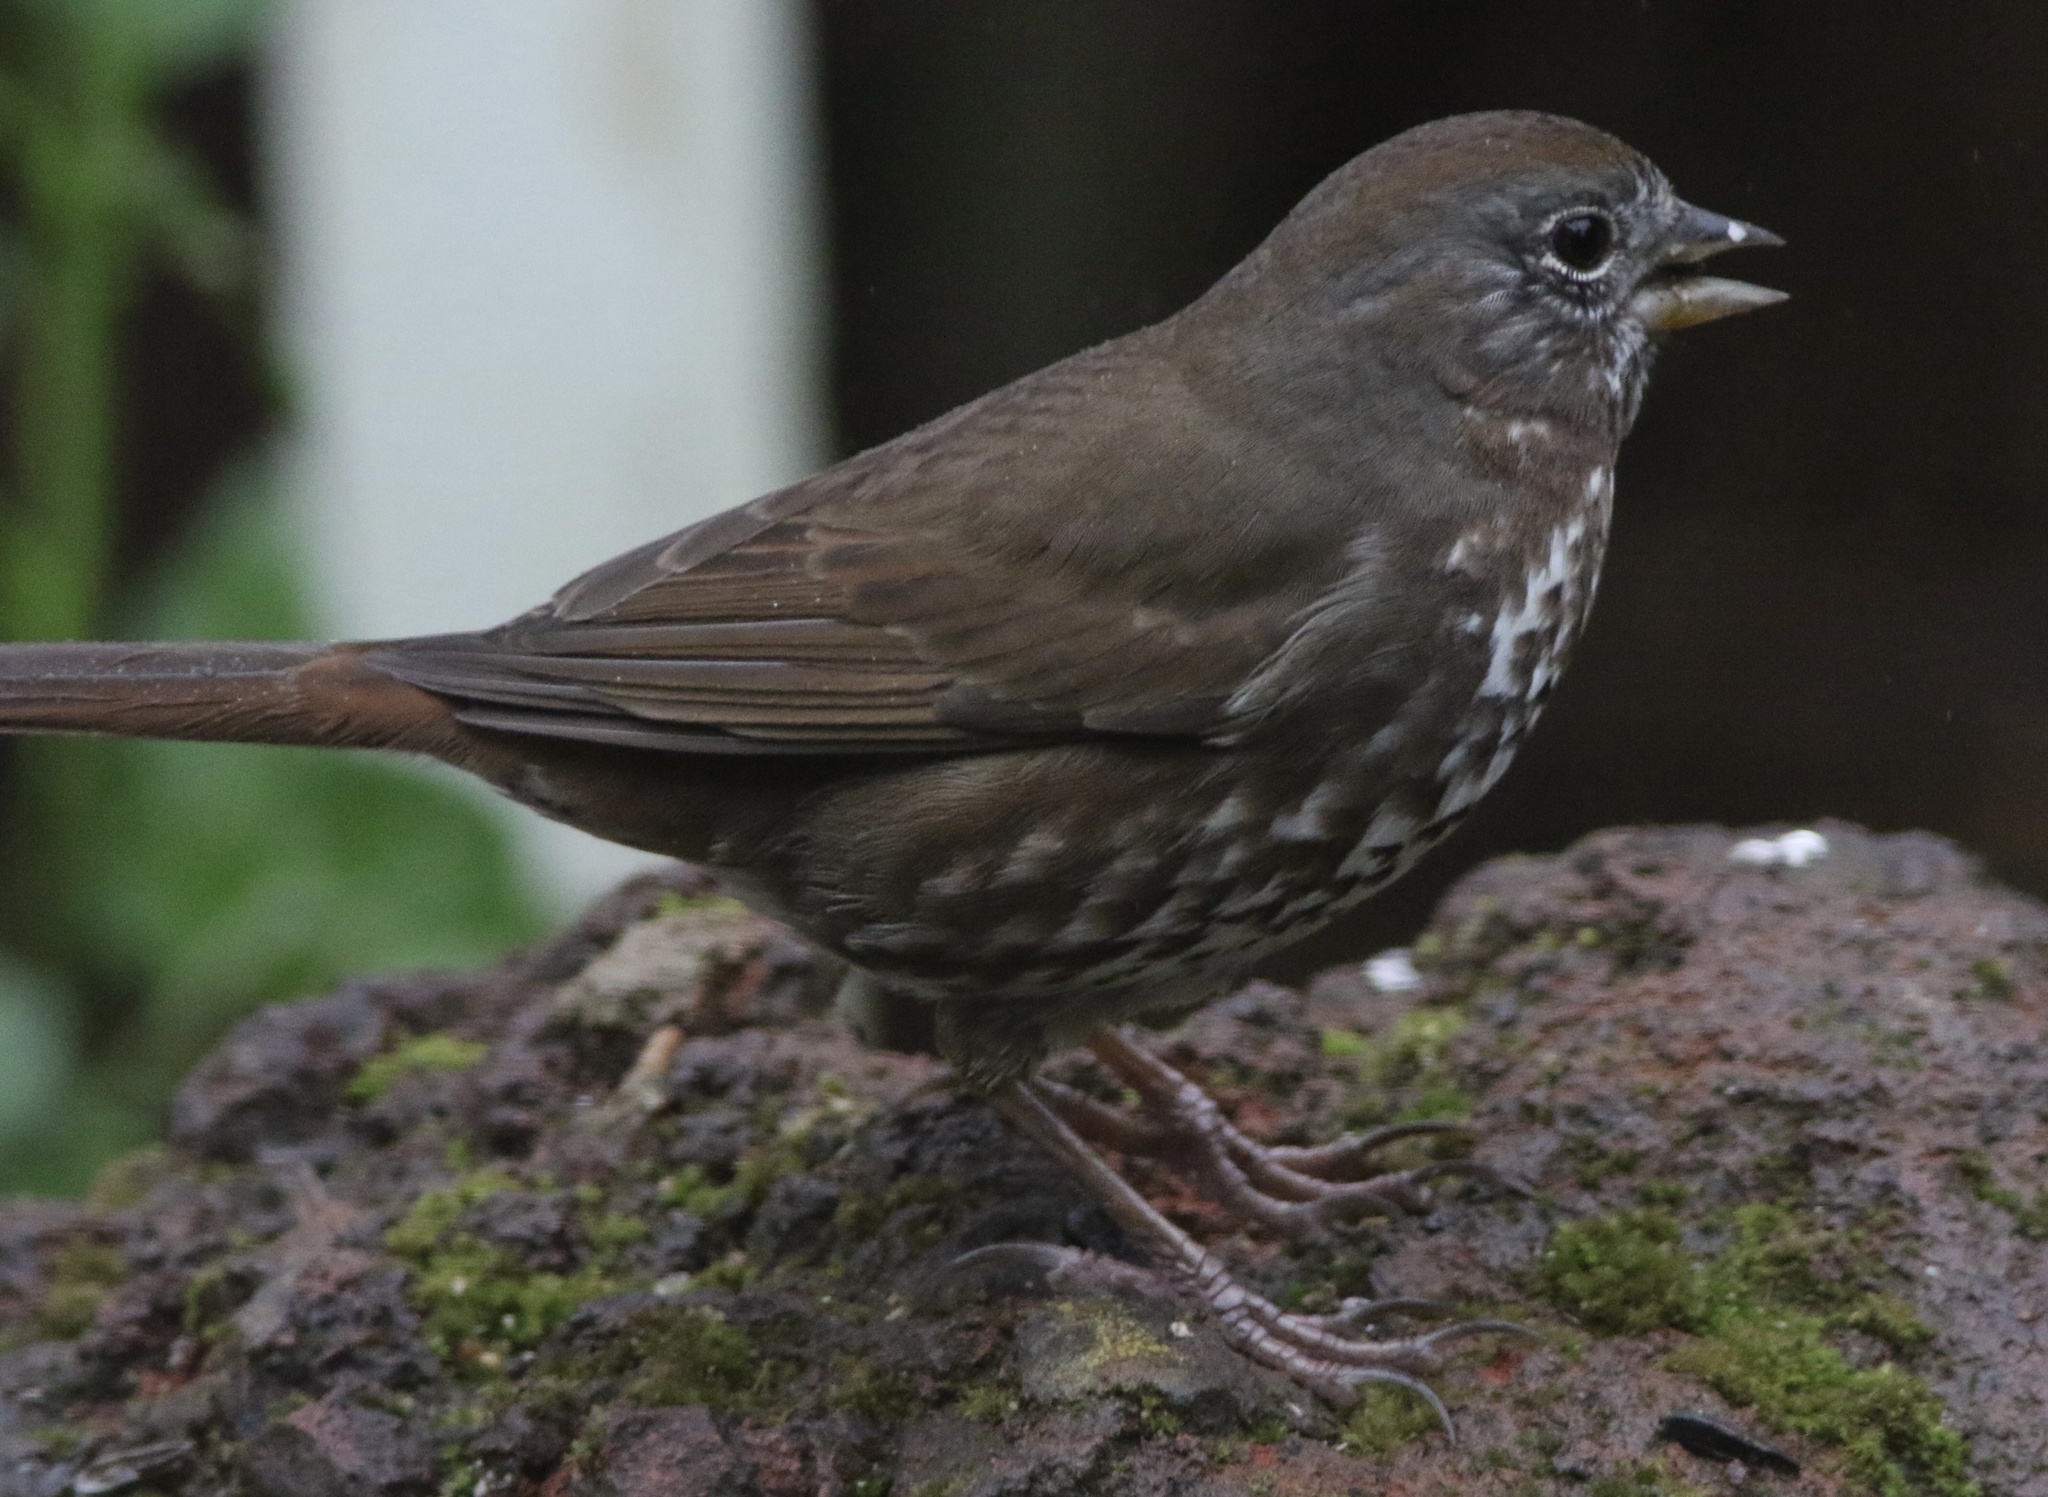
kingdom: Animalia
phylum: Chordata
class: Aves
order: Passeriformes
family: Passerellidae
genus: Passerella
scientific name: Passerella iliaca
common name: Fox sparrow
